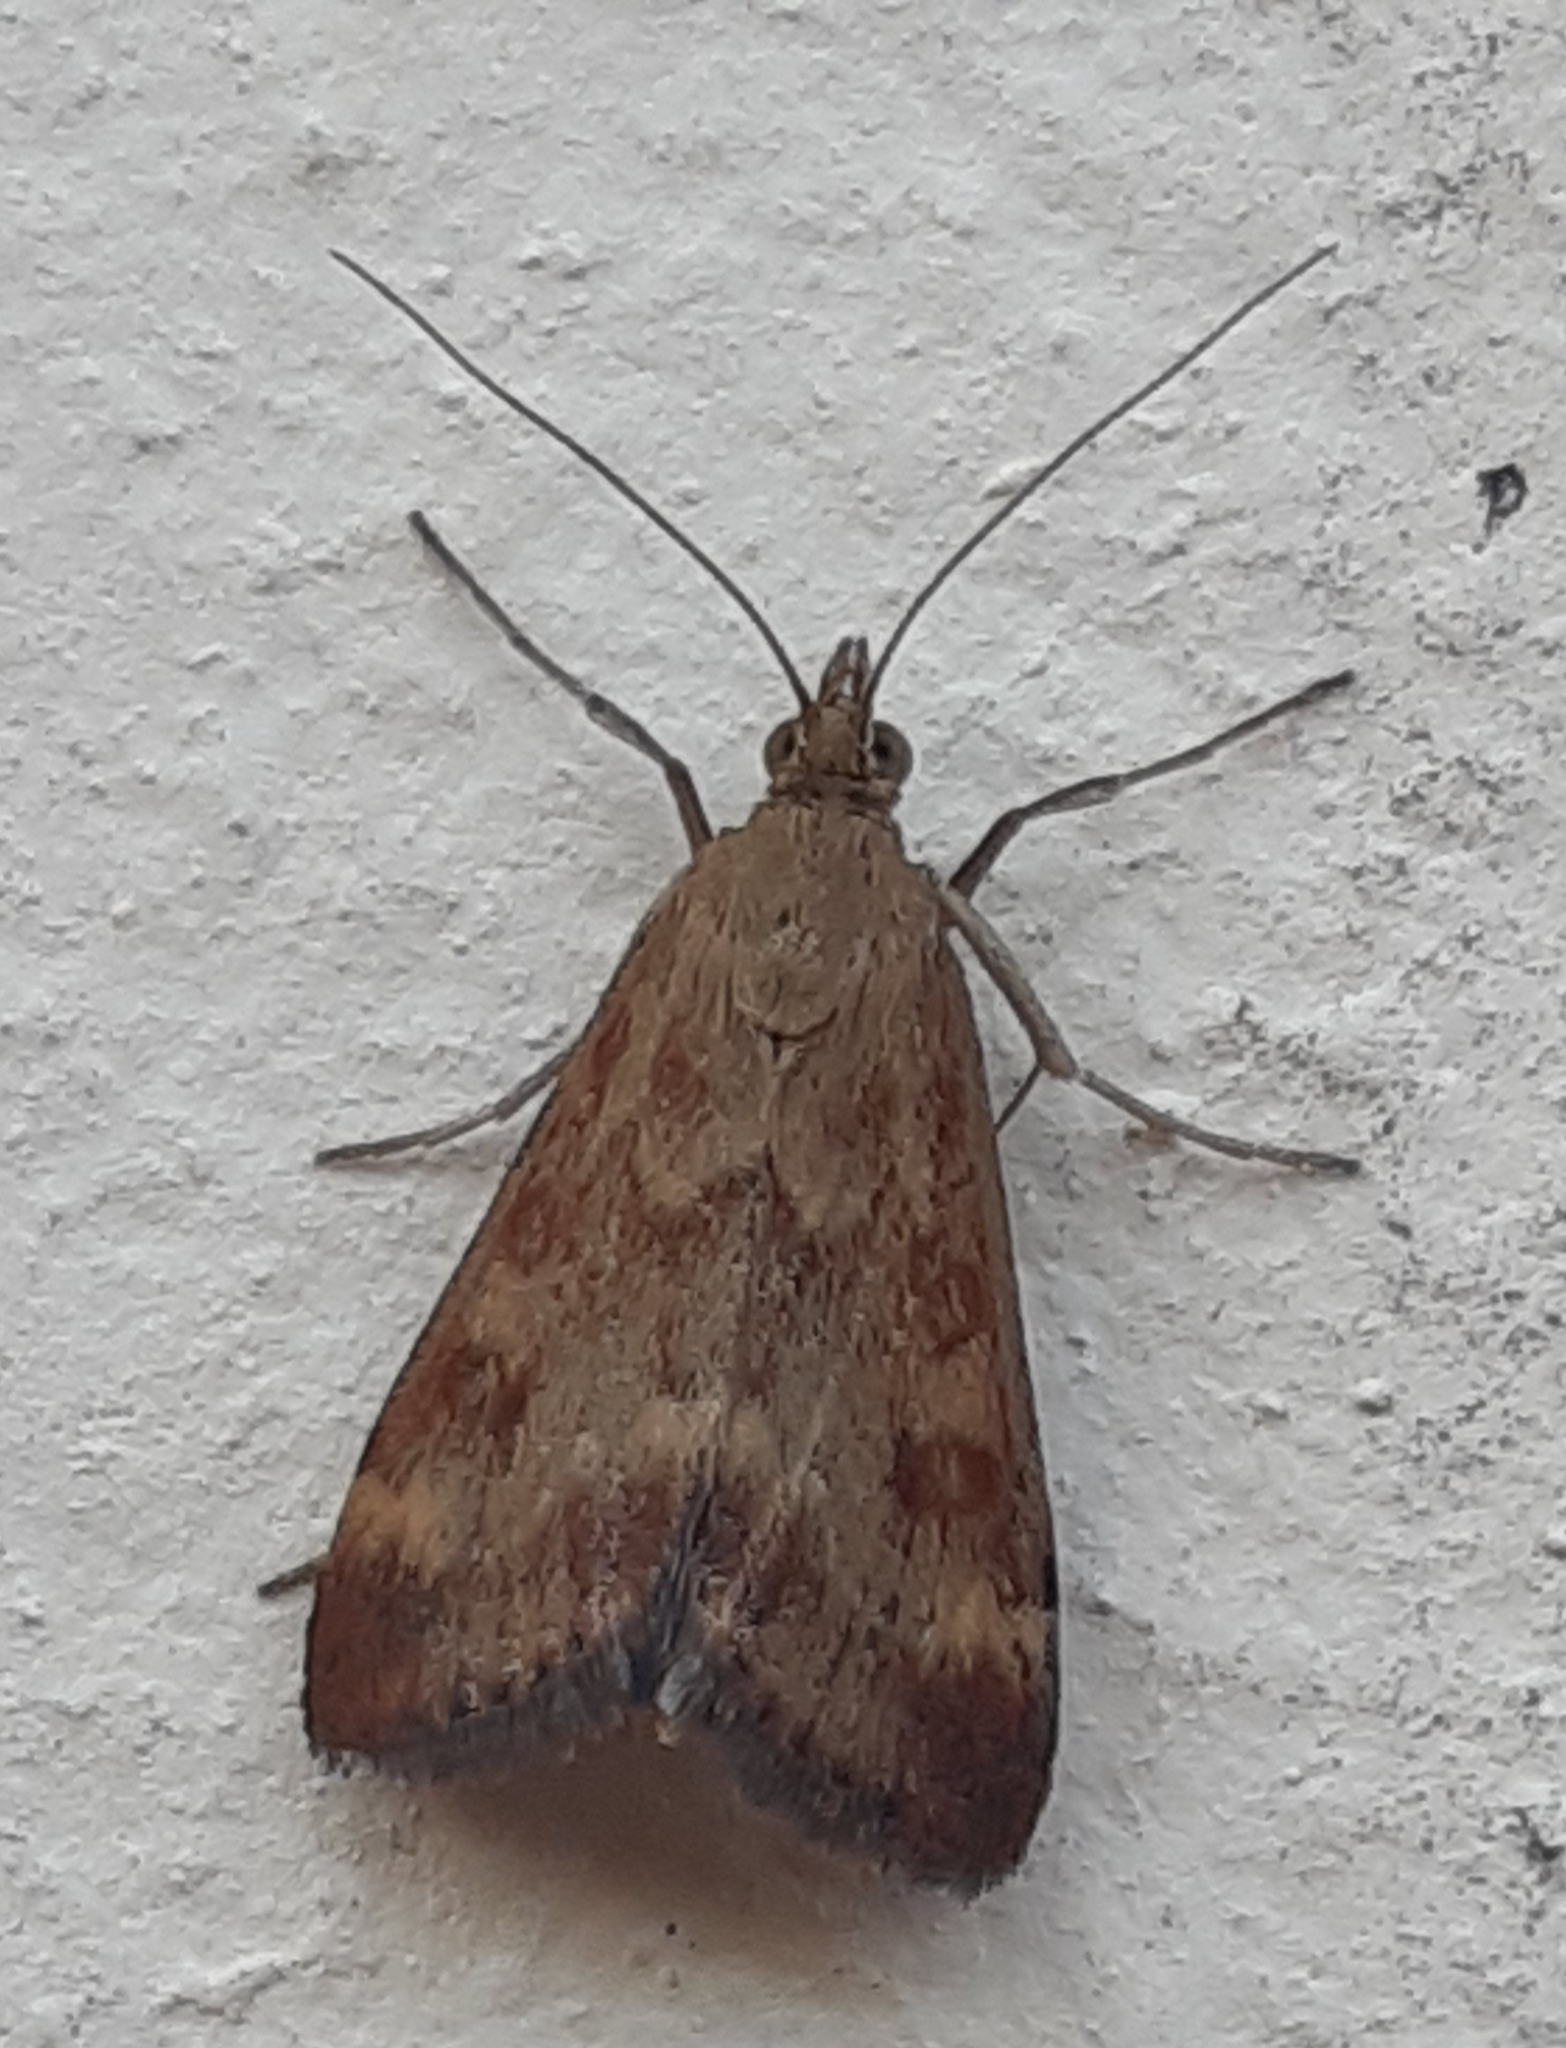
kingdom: Animalia
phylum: Arthropoda
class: Insecta
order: Lepidoptera
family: Crambidae
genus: Pyrausta
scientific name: Pyrausta despicata
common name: Straw-barred pearl
